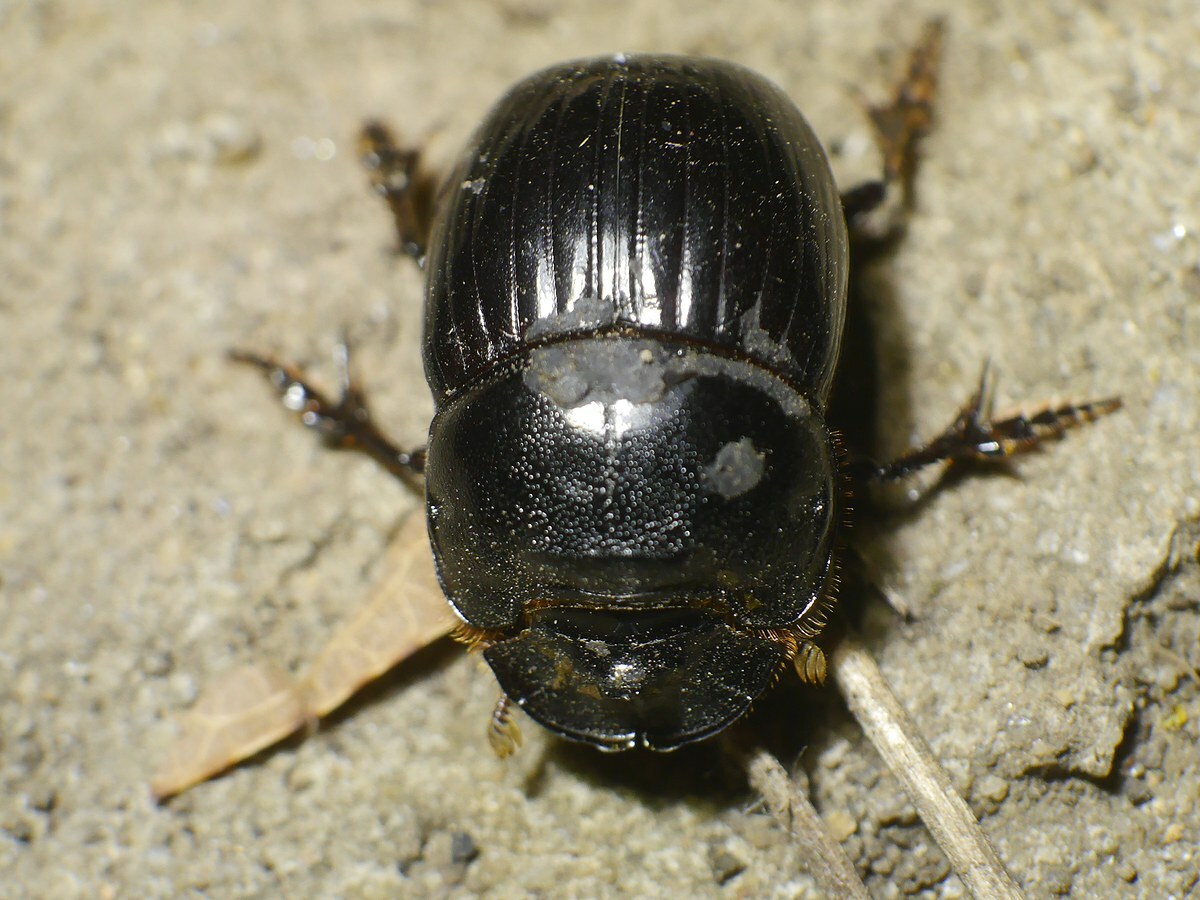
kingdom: Animalia
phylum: Arthropoda
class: Insecta
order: Coleoptera
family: Scarabaeidae
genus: Copris
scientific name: Copris lunaris
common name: Horned dung beetle
